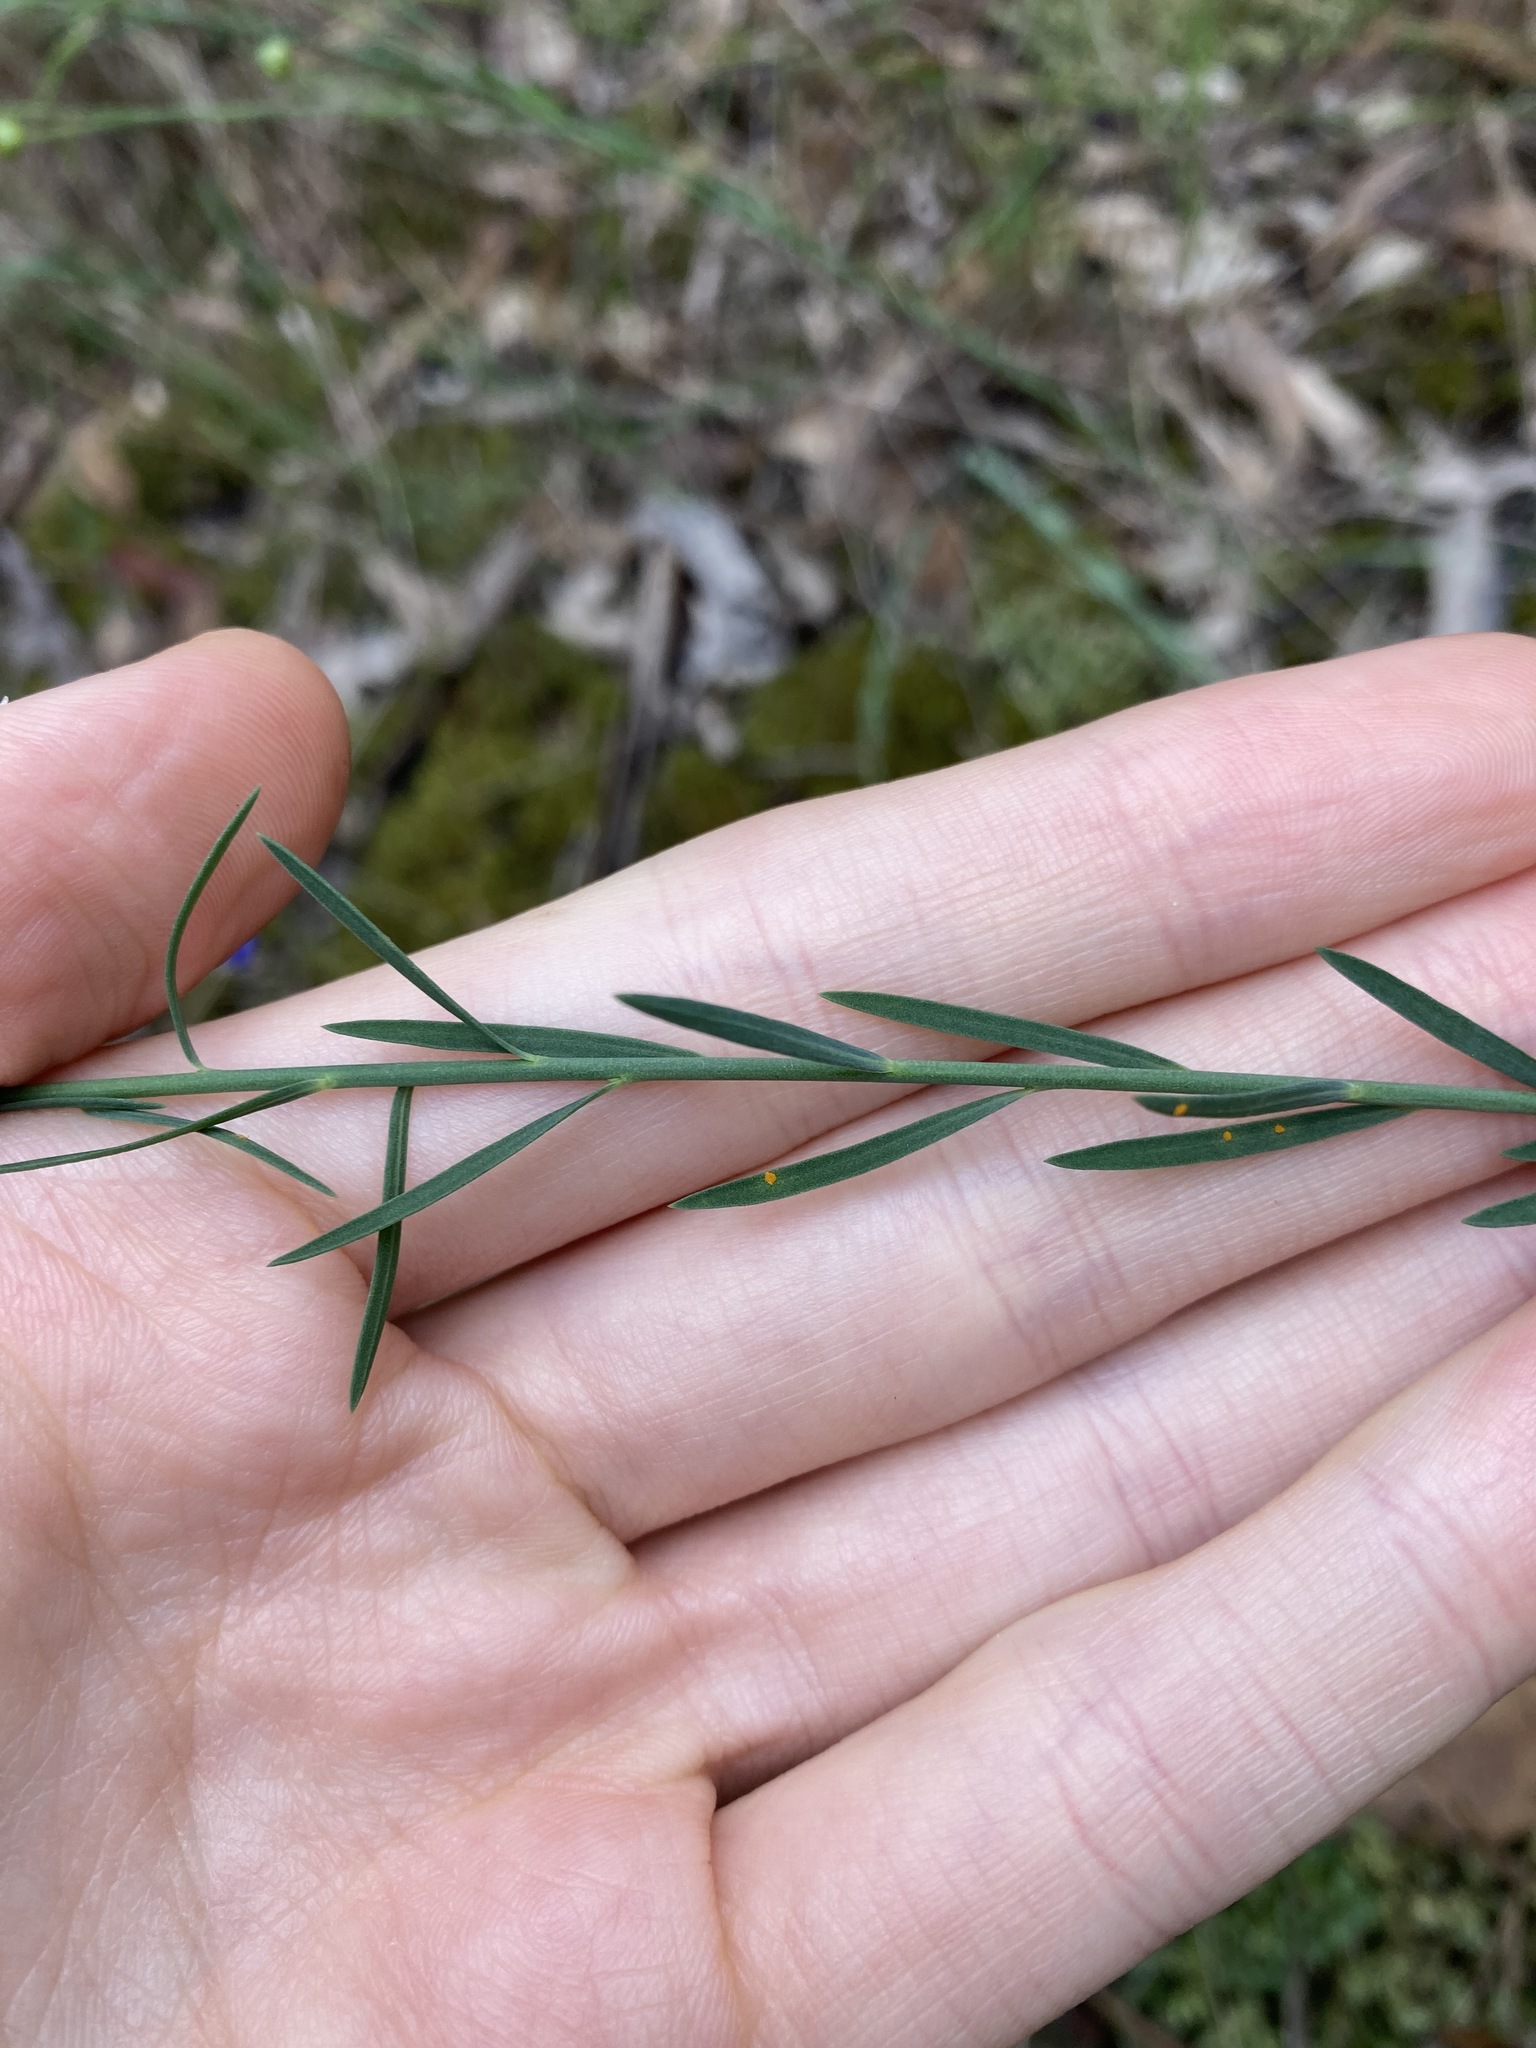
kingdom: Plantae
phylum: Tracheophyta
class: Magnoliopsida
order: Malpighiales
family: Linaceae
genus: Linum
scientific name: Linum marginale
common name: Wild flax
